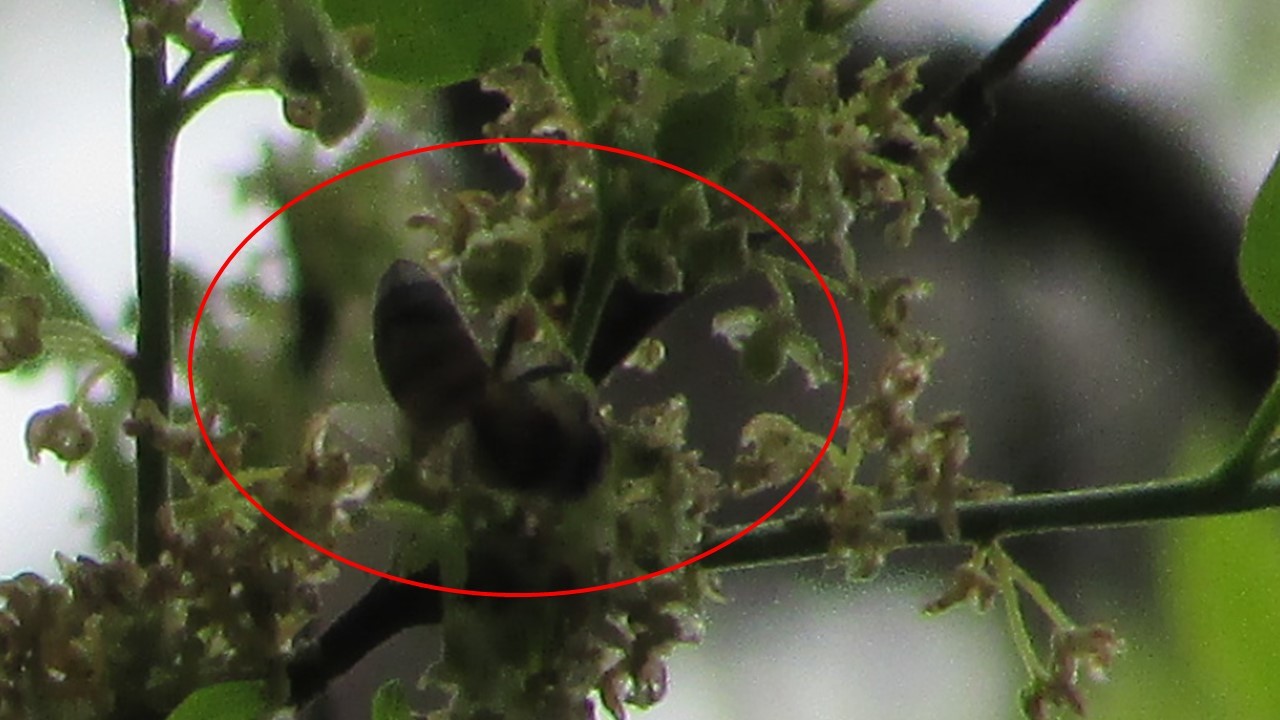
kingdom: Animalia
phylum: Arthropoda
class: Insecta
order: Hymenoptera
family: Apidae
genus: Apis
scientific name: Apis mellifera
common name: Honey bee
